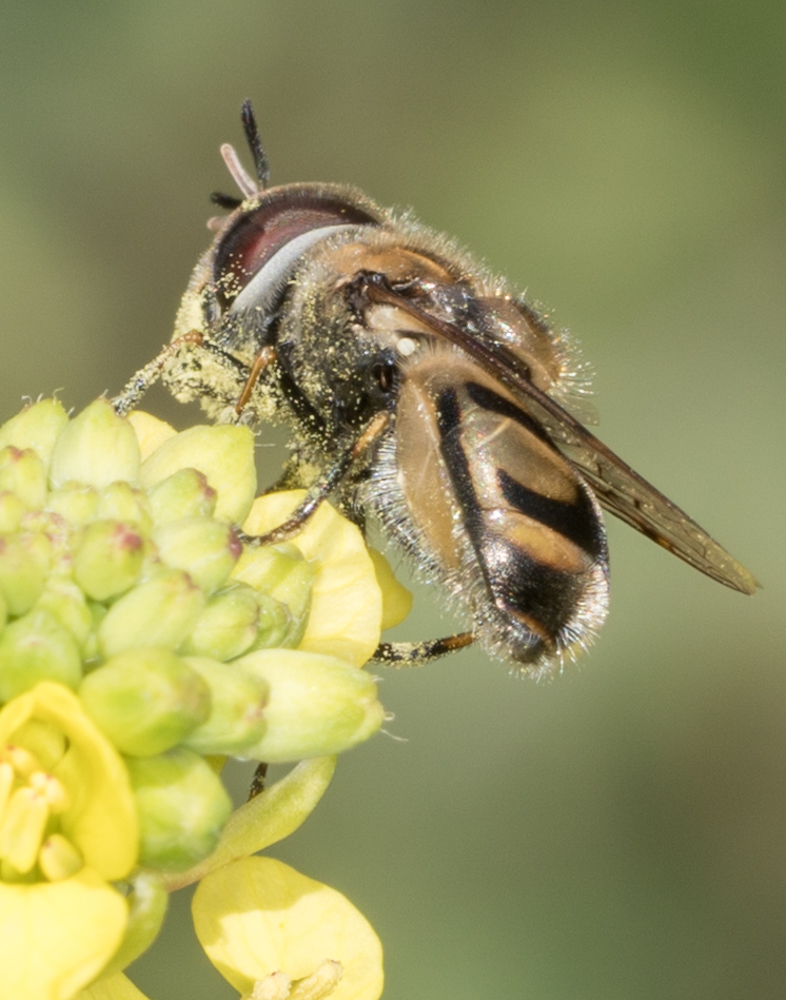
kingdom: Animalia
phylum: Arthropoda
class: Insecta
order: Diptera
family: Syrphidae
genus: Copestylum
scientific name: Copestylum marginatum
